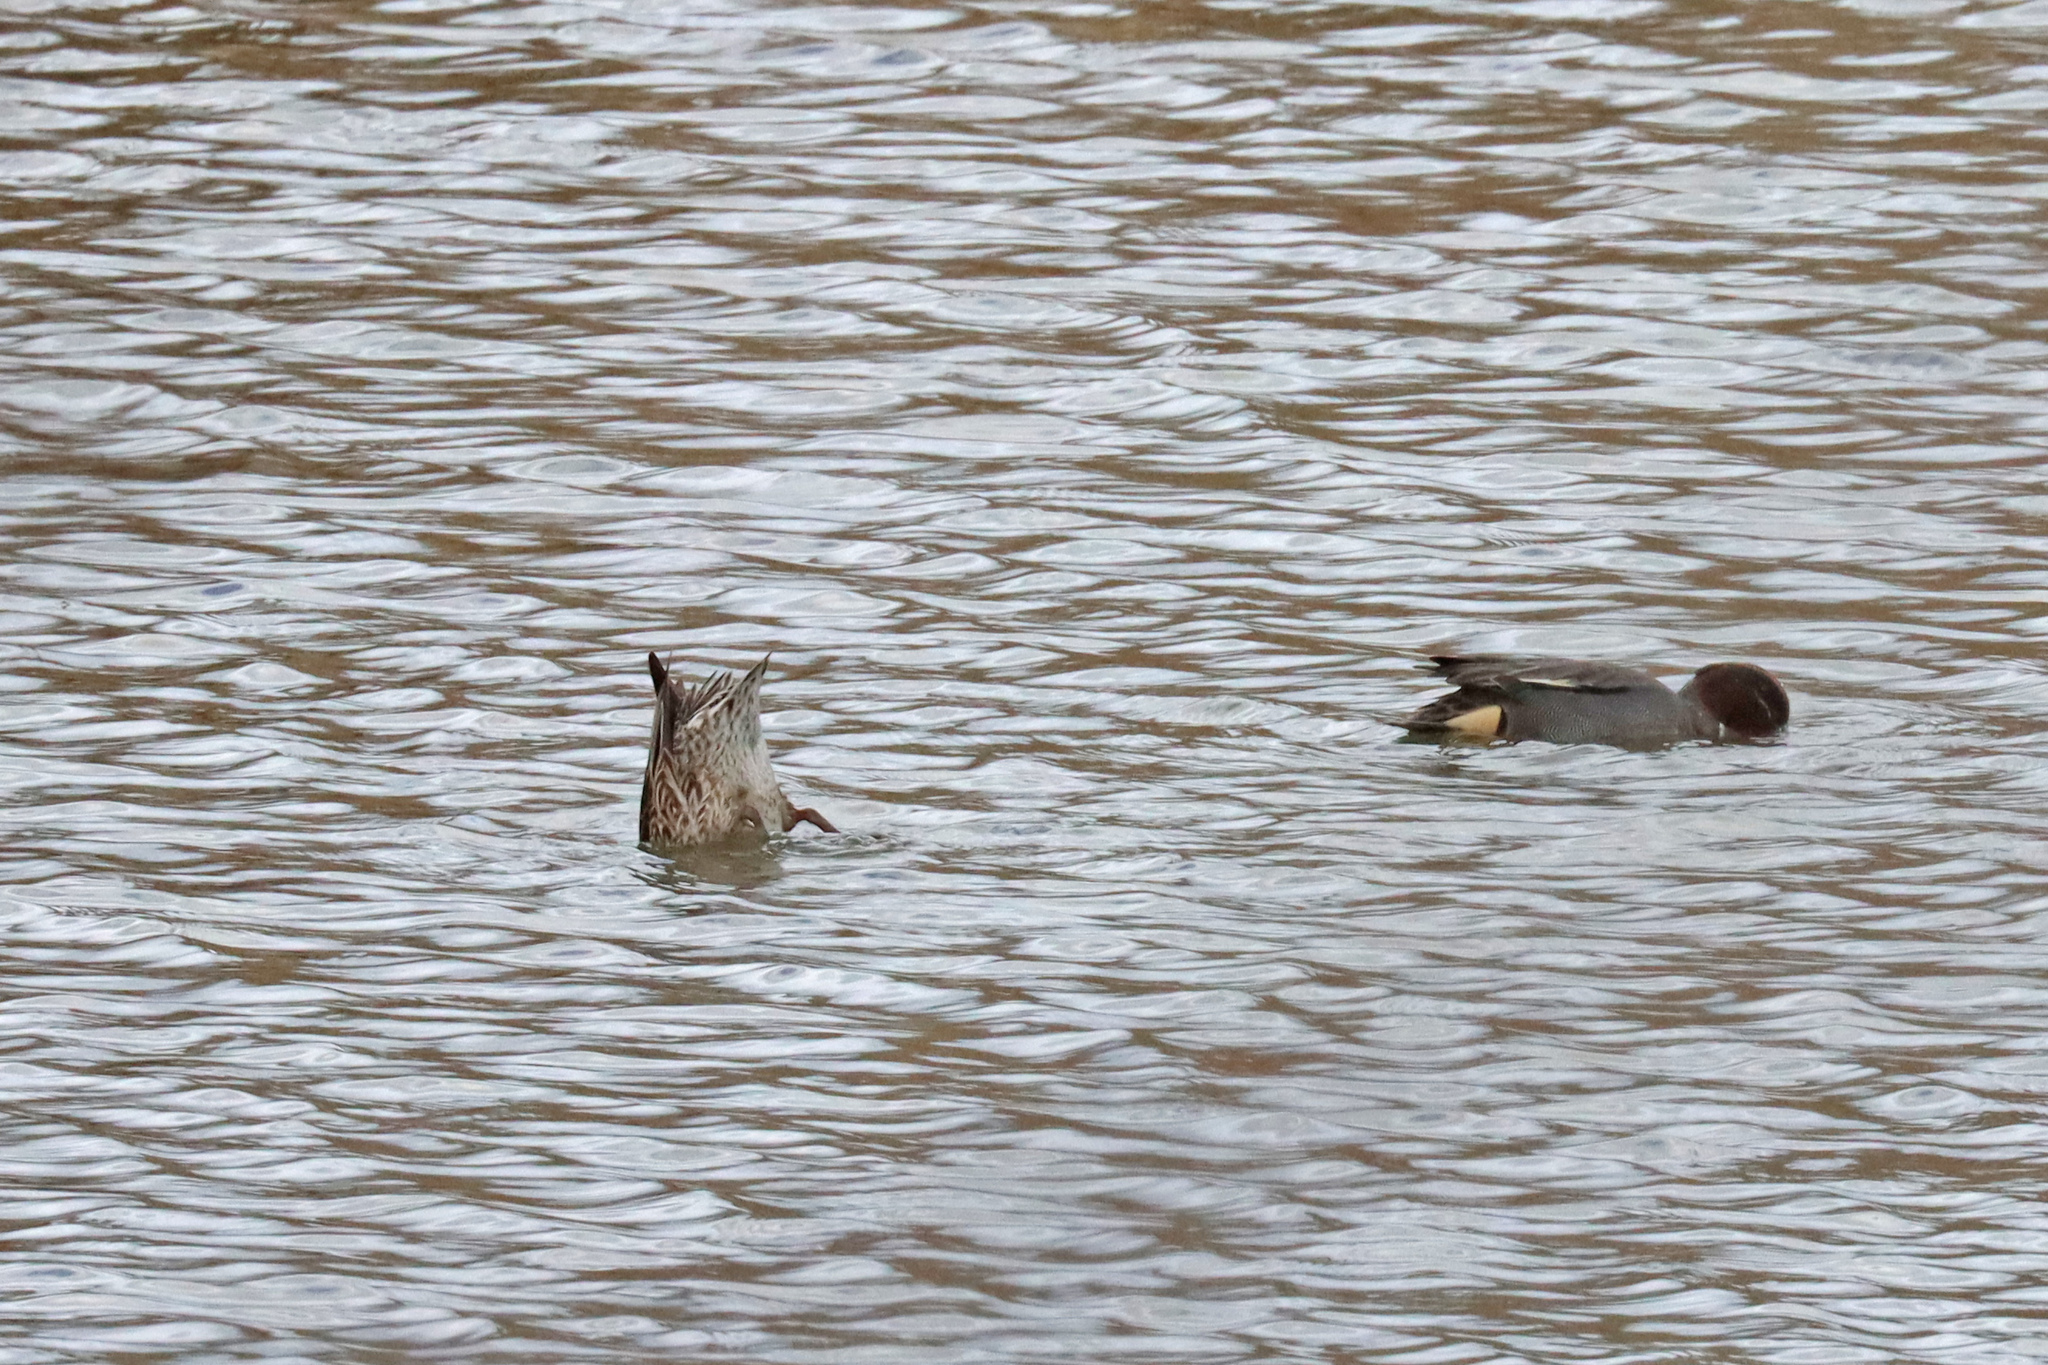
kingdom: Animalia
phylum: Chordata
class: Aves
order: Anseriformes
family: Anatidae
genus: Anas
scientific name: Anas crecca
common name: Eurasian teal
